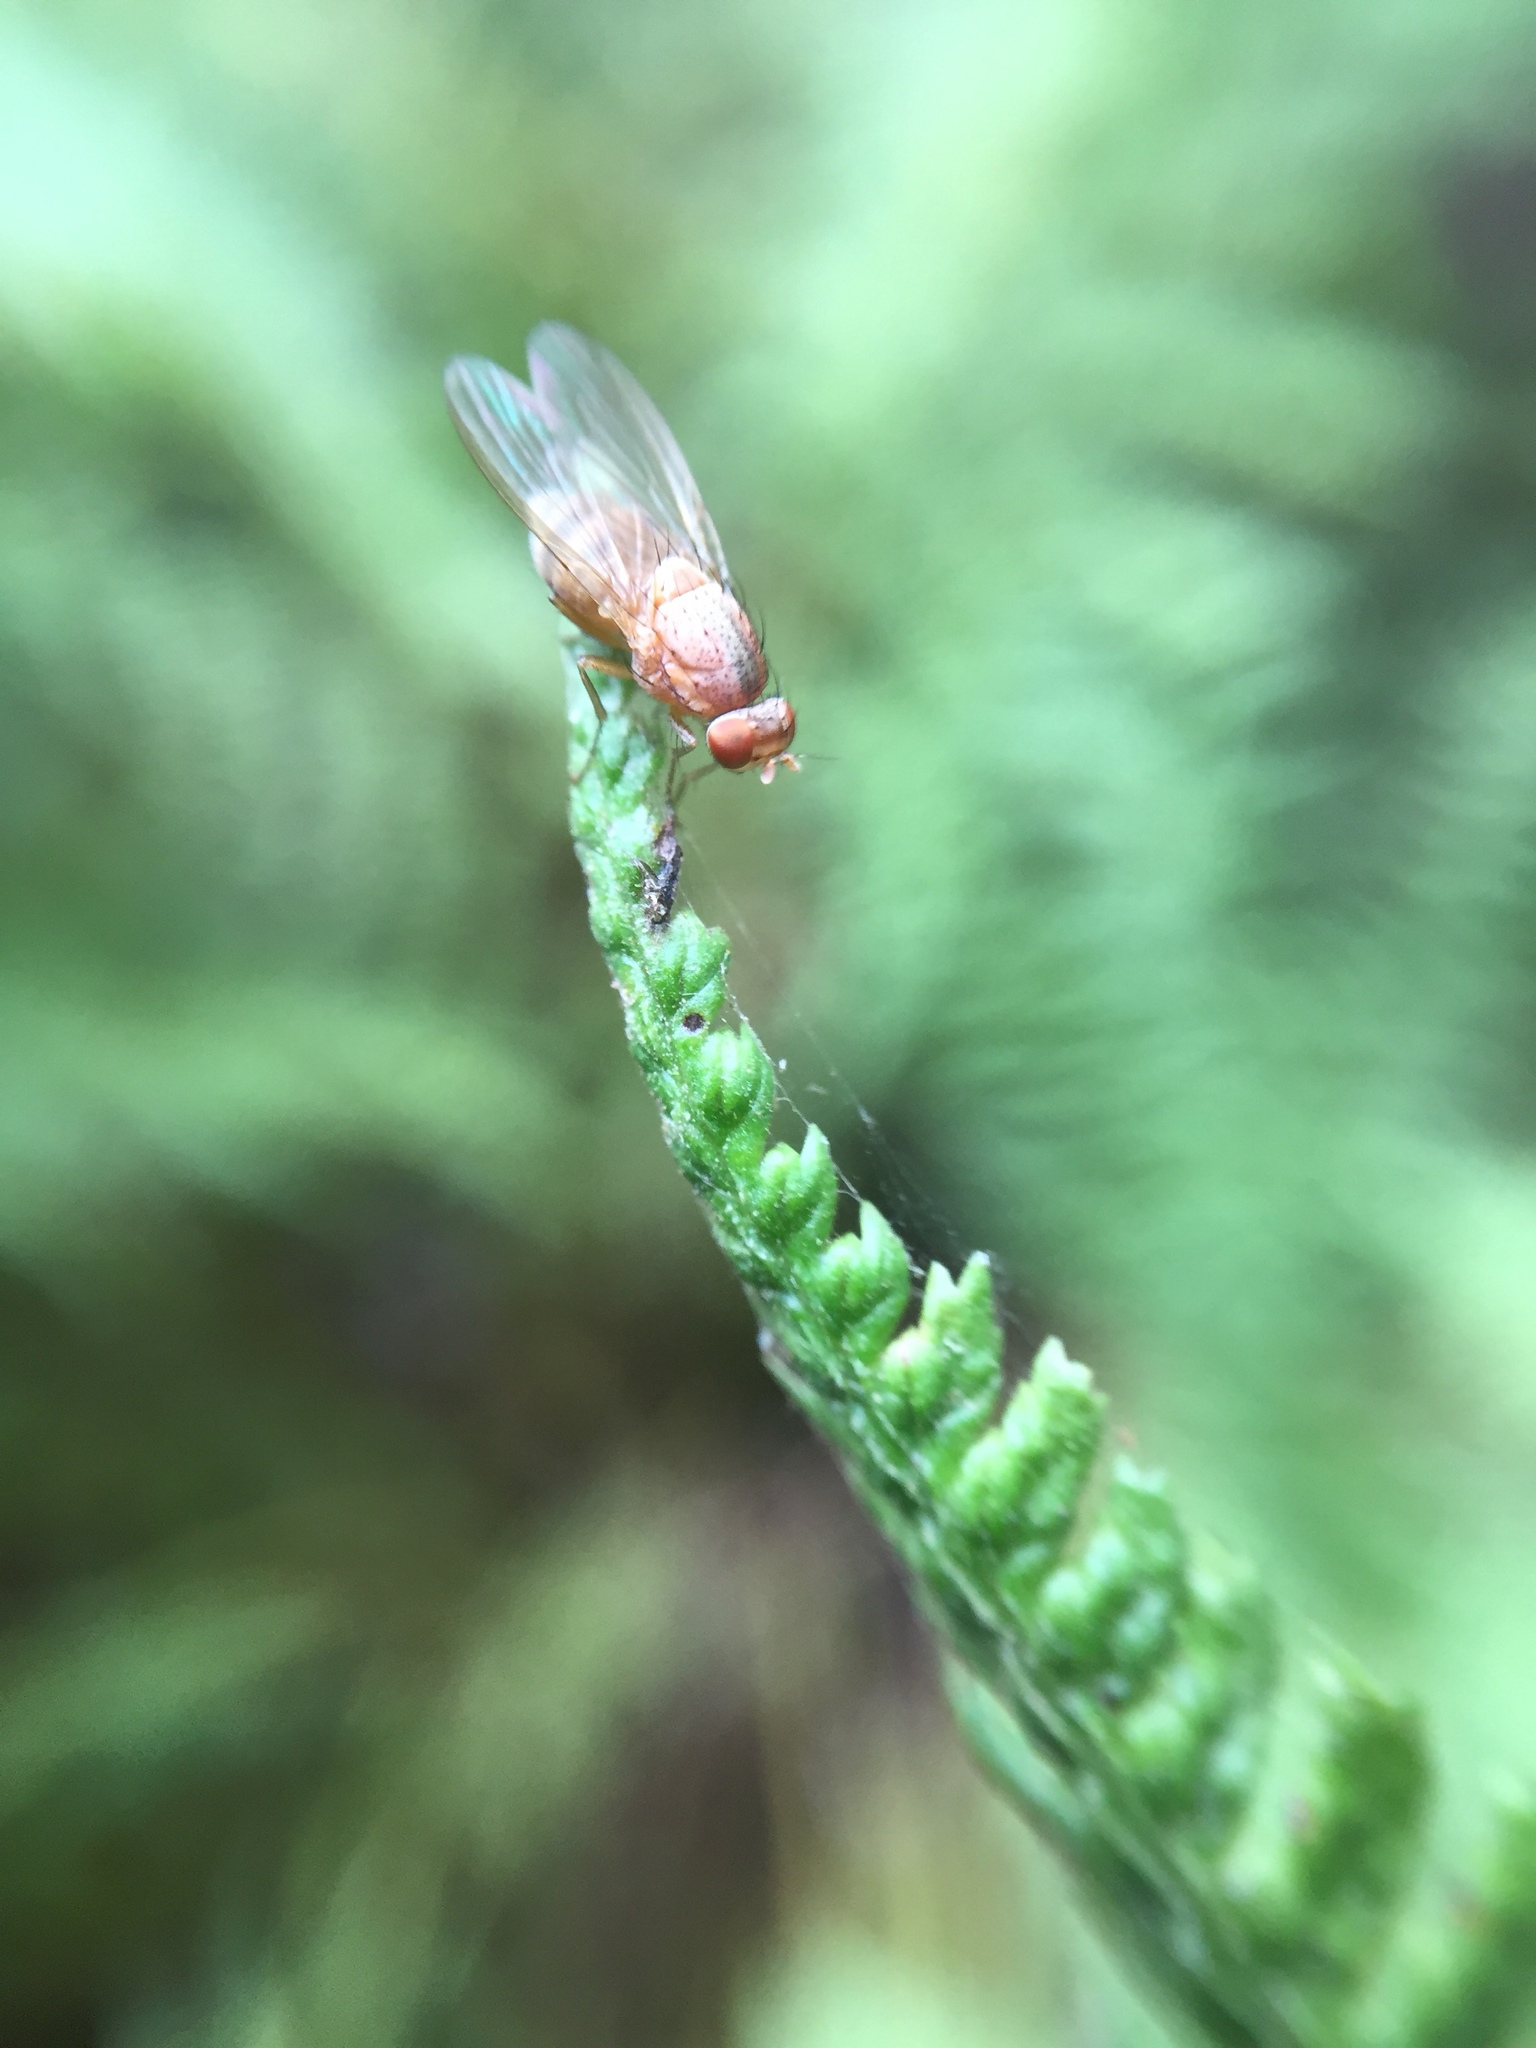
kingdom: Animalia
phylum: Arthropoda
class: Insecta
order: Diptera
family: Lauxaniidae
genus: Minettia
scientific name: Minettia flaveola
